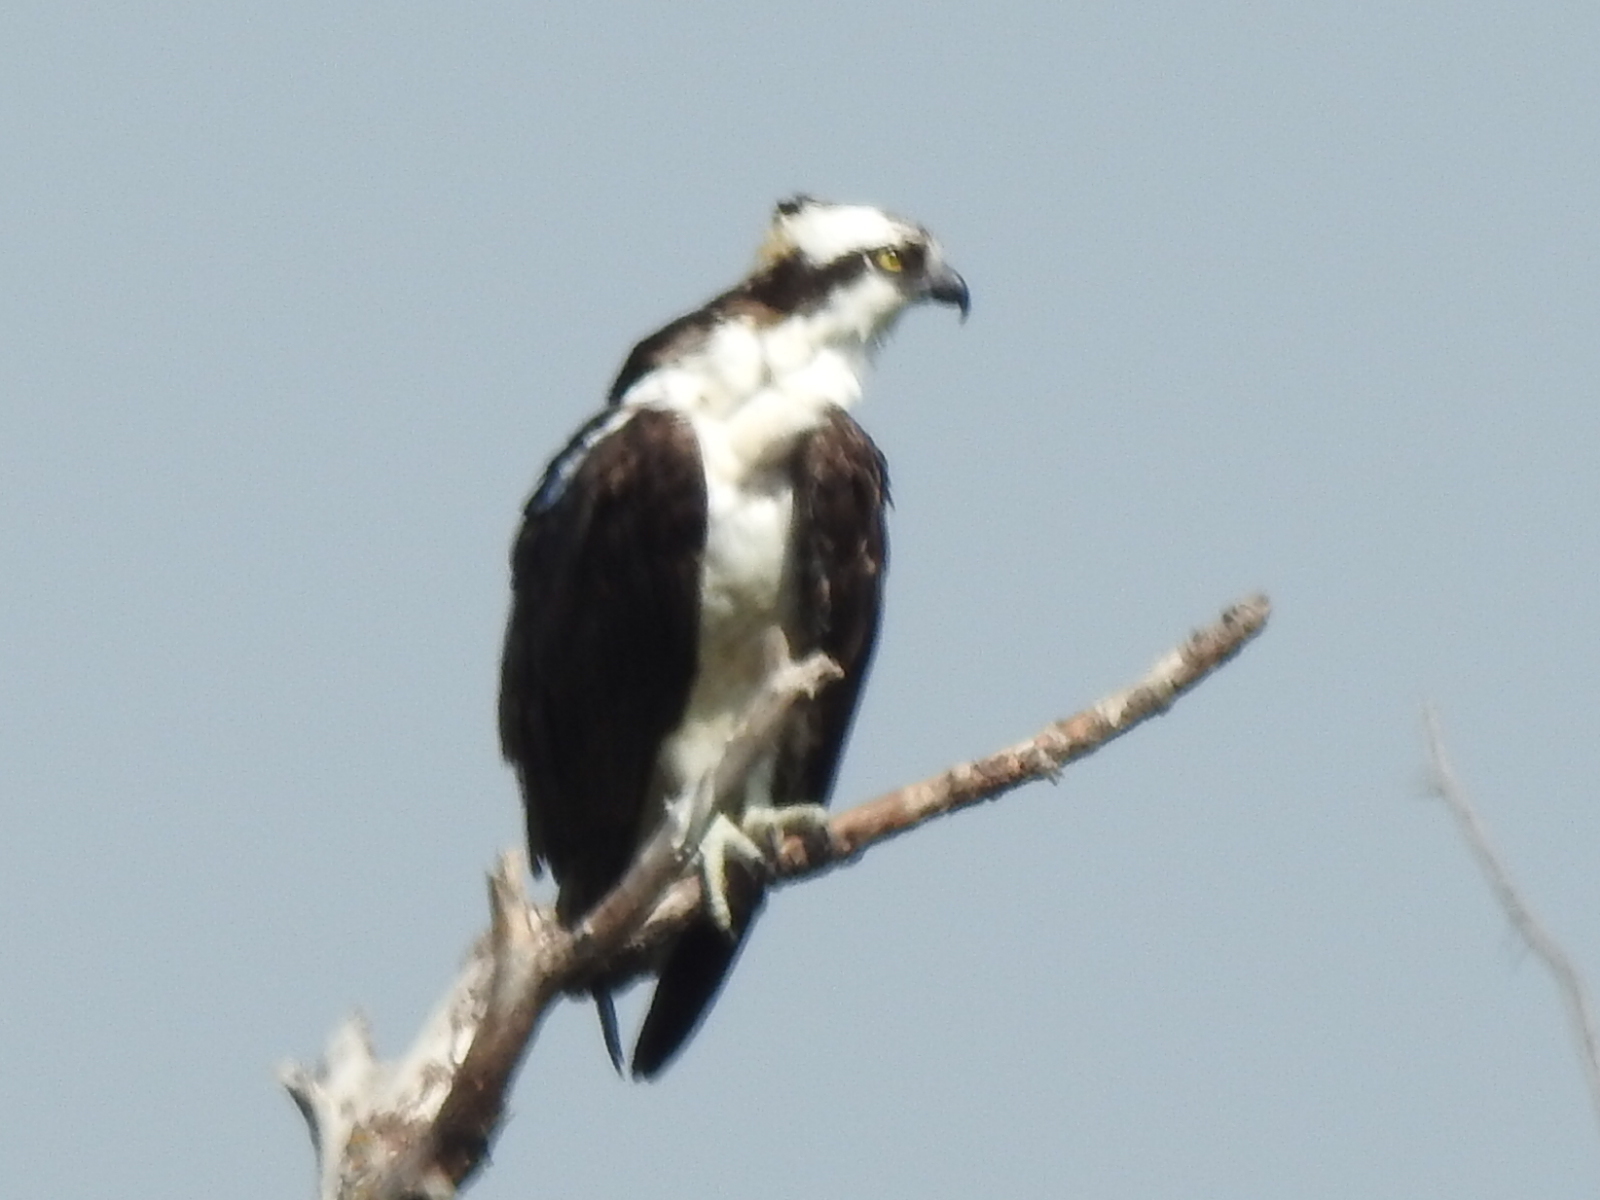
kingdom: Animalia
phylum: Chordata
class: Aves
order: Accipitriformes
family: Pandionidae
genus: Pandion
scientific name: Pandion haliaetus
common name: Osprey
